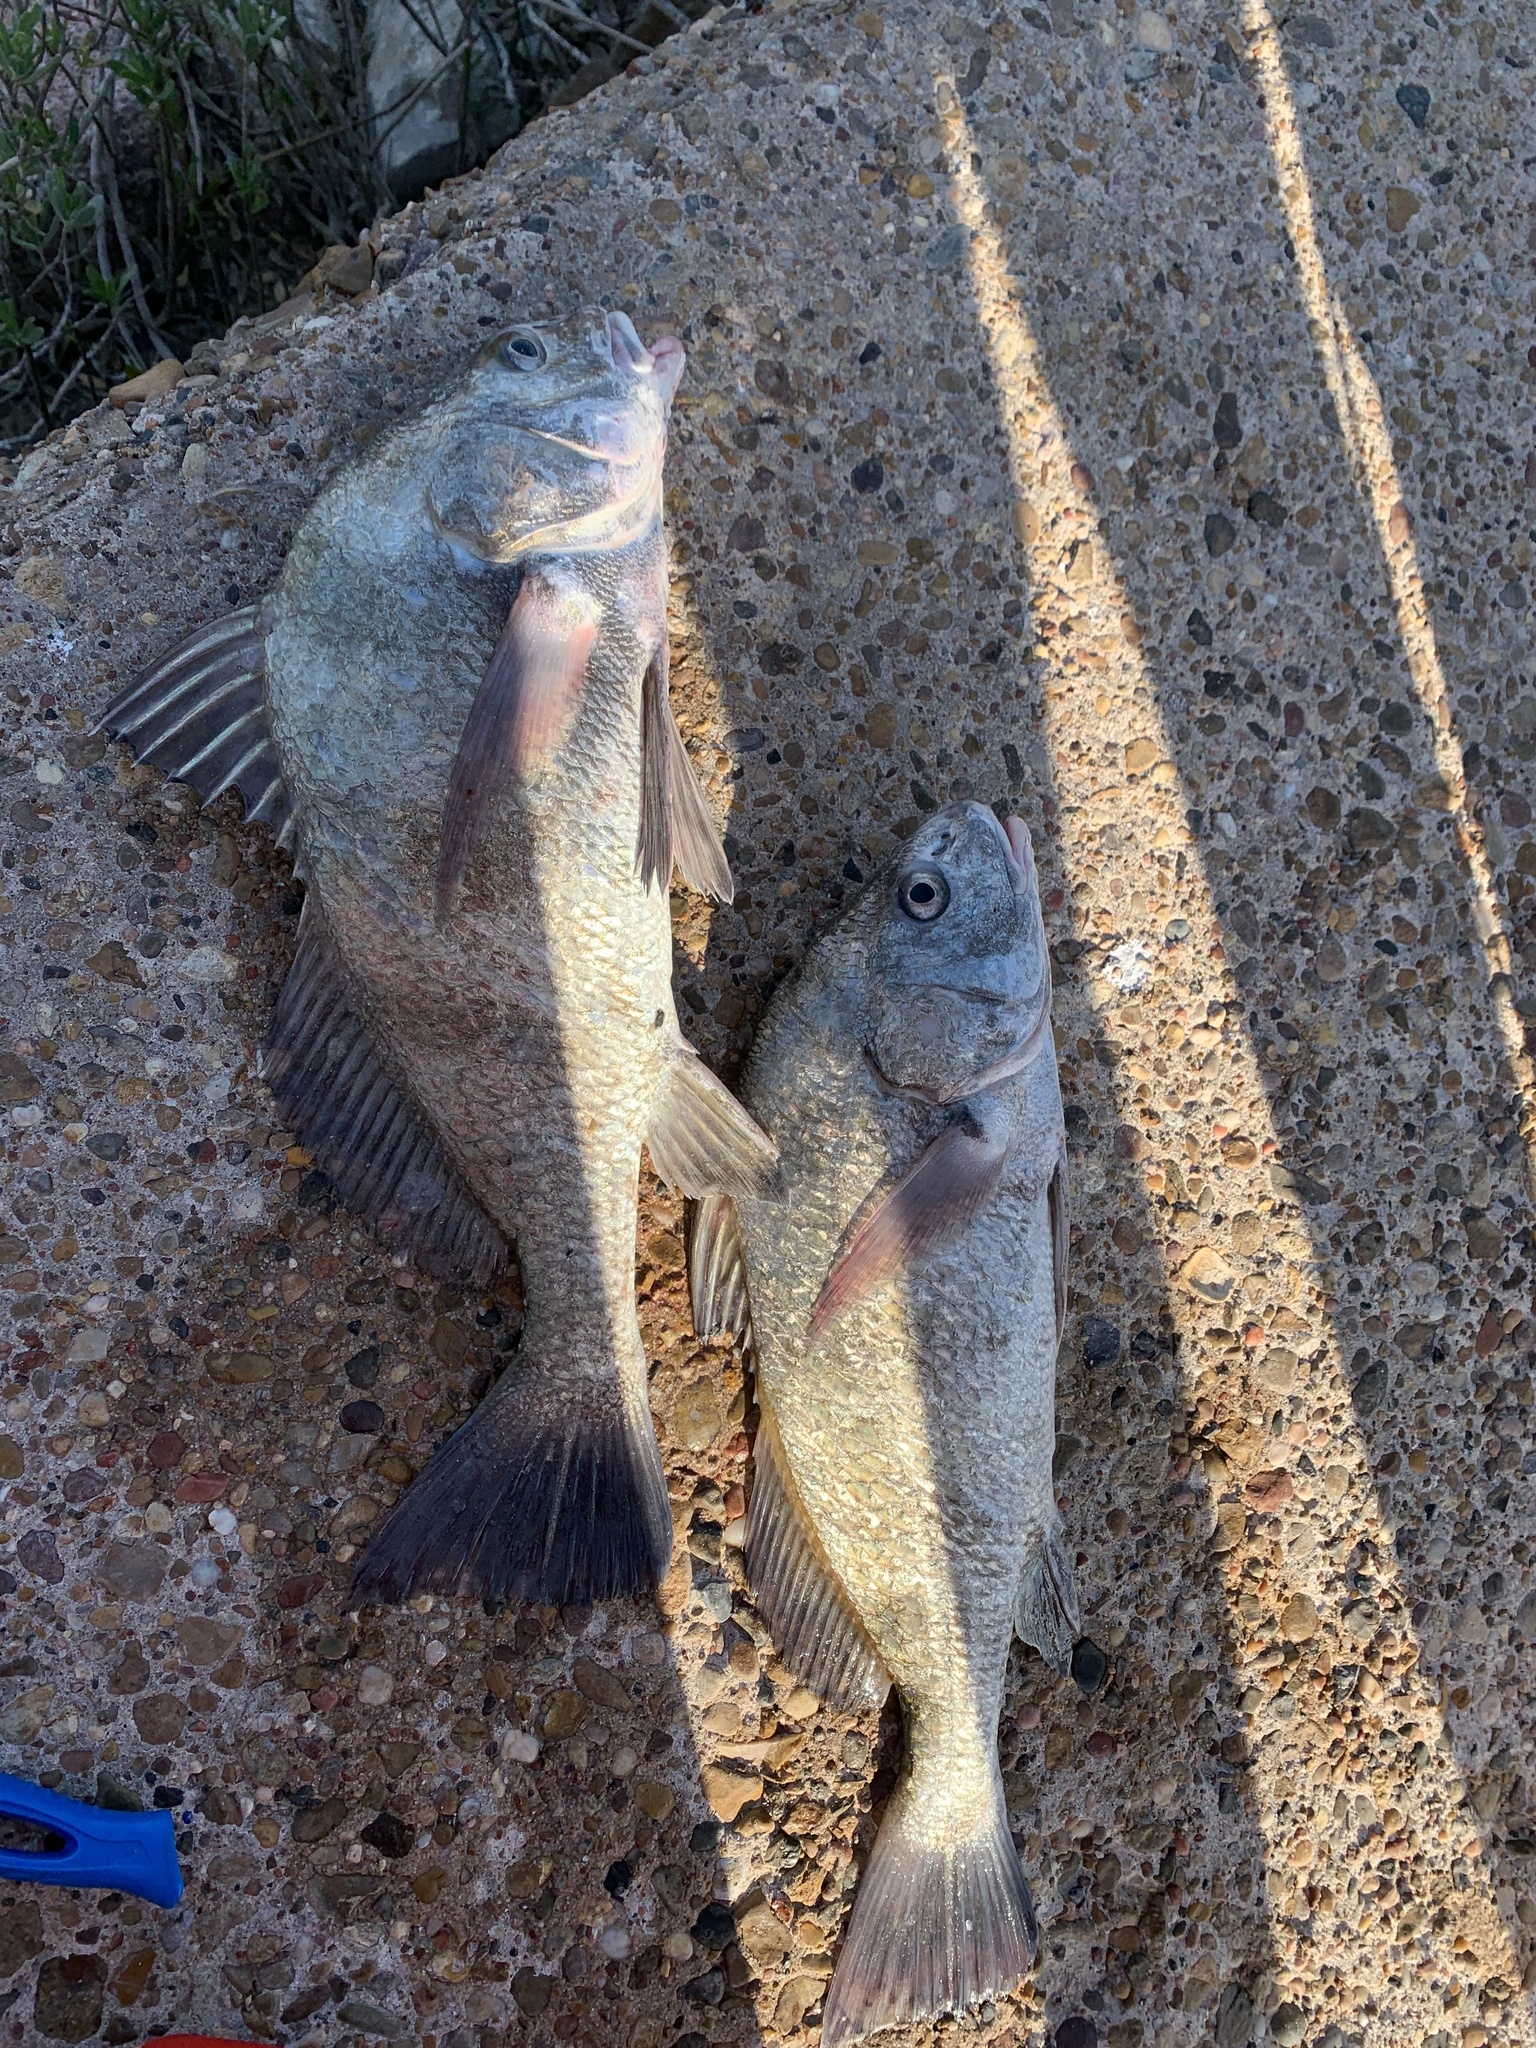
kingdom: Animalia
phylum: Chordata
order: Perciformes
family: Sciaenidae
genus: Pogonias
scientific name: Pogonias cromis
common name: Black drum
